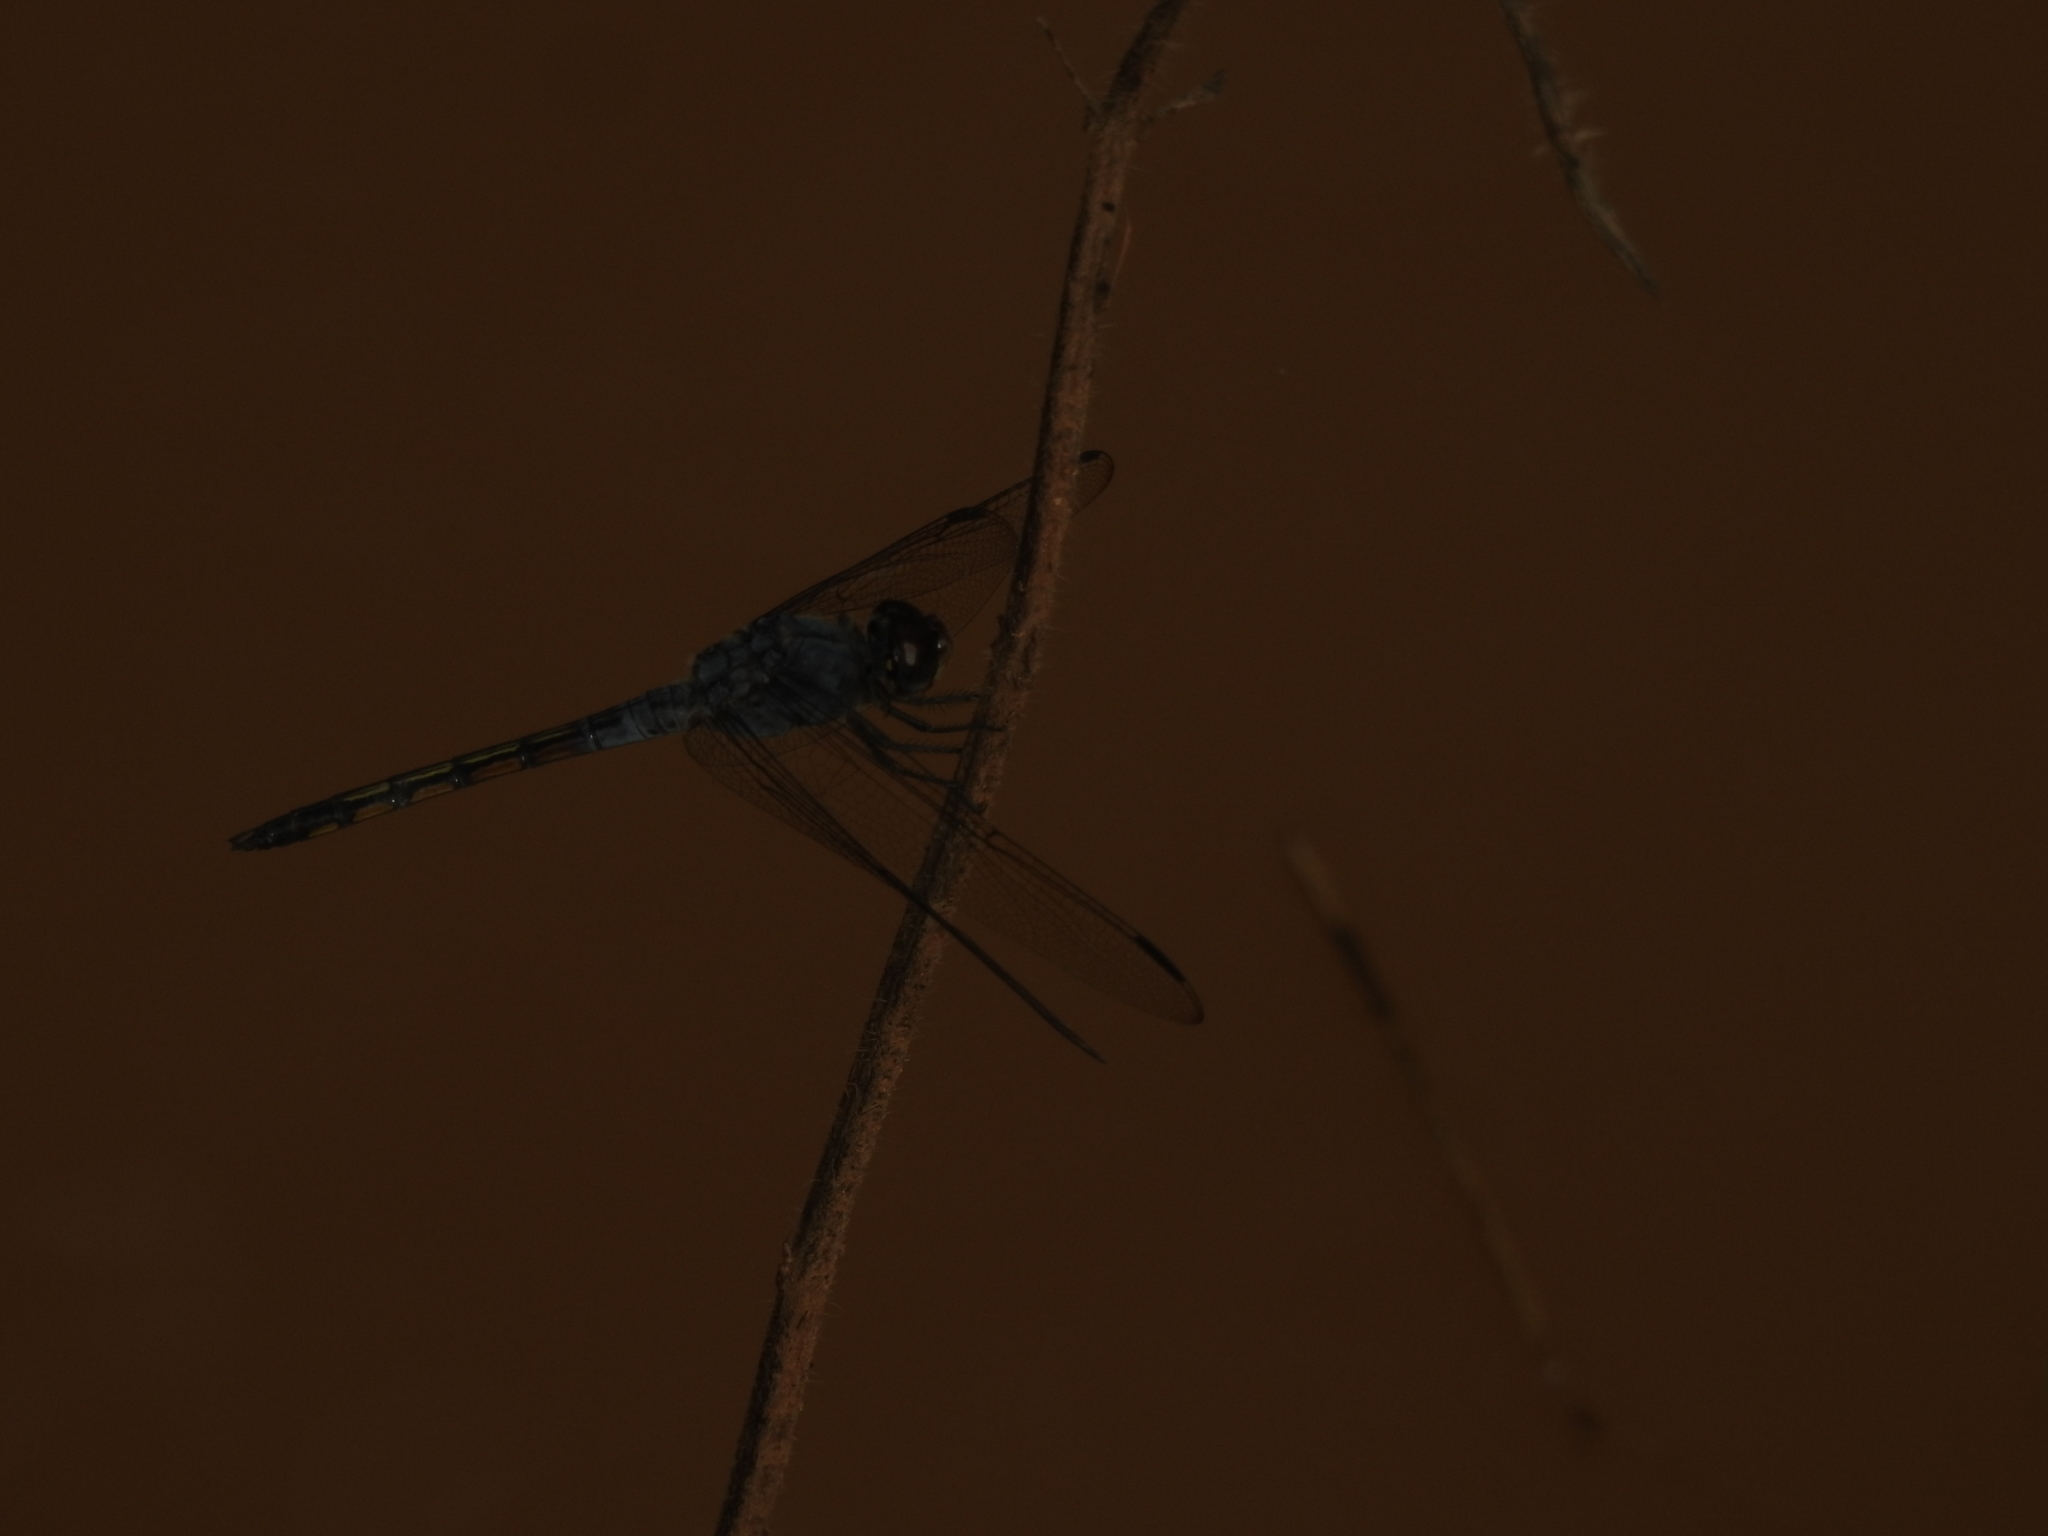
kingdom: Animalia
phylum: Arthropoda
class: Insecta
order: Odonata
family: Libellulidae
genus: Potamarcha
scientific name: Potamarcha congener
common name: Blue chaser
